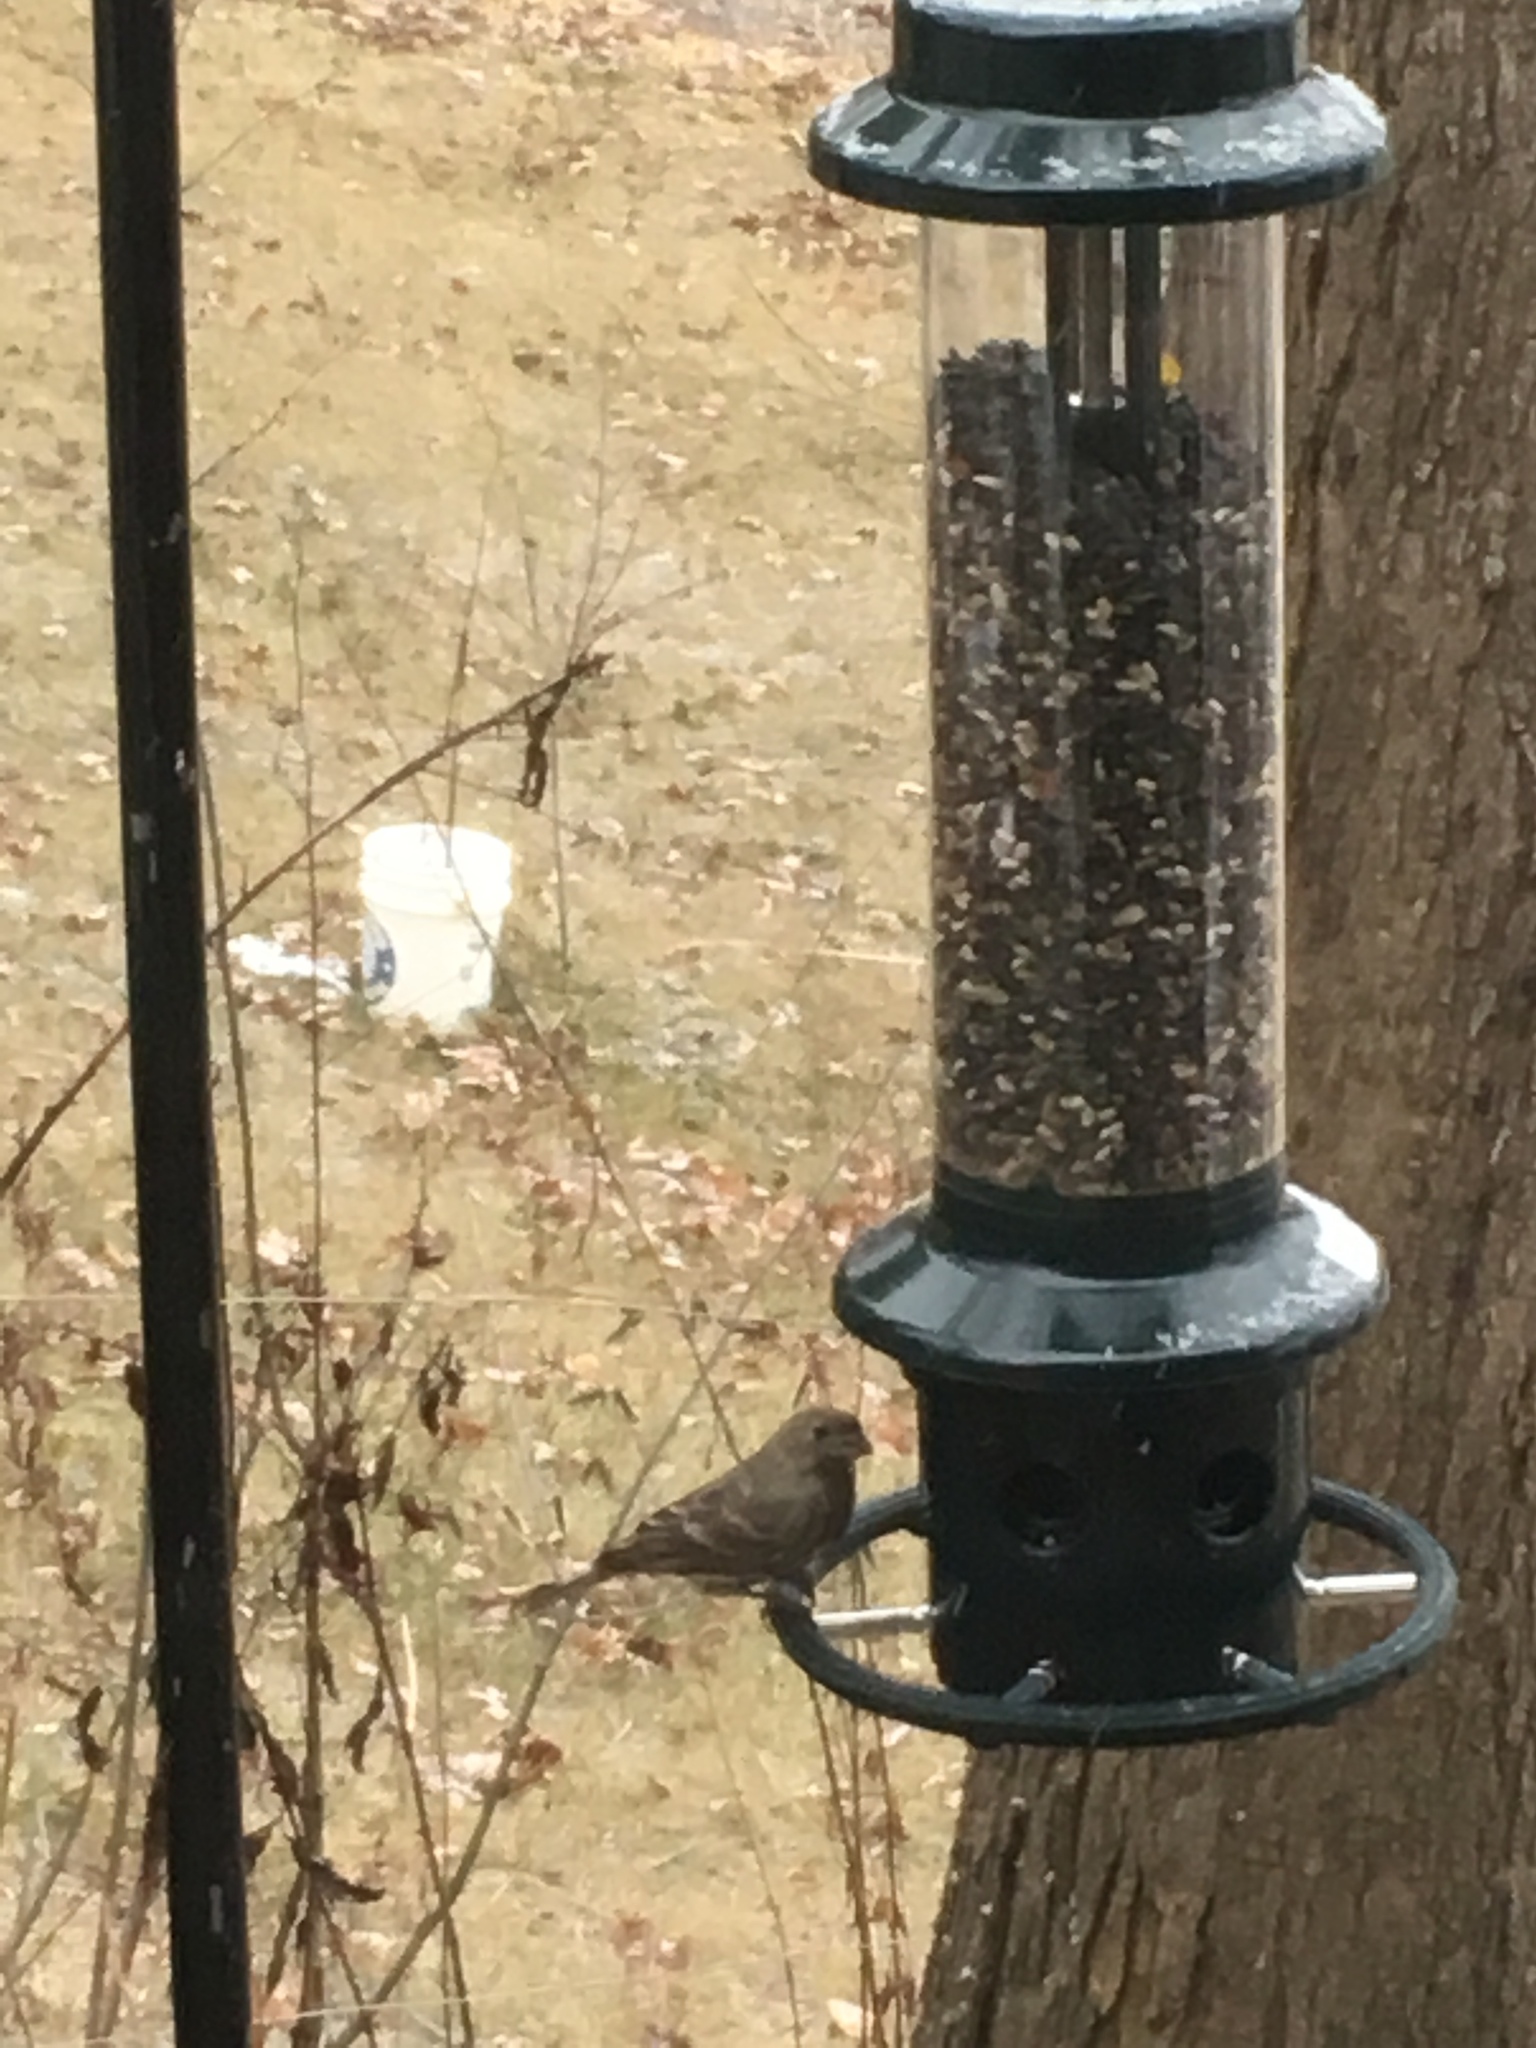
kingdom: Animalia
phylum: Chordata
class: Aves
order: Passeriformes
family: Fringillidae
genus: Haemorhous
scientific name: Haemorhous mexicanus
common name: House finch
